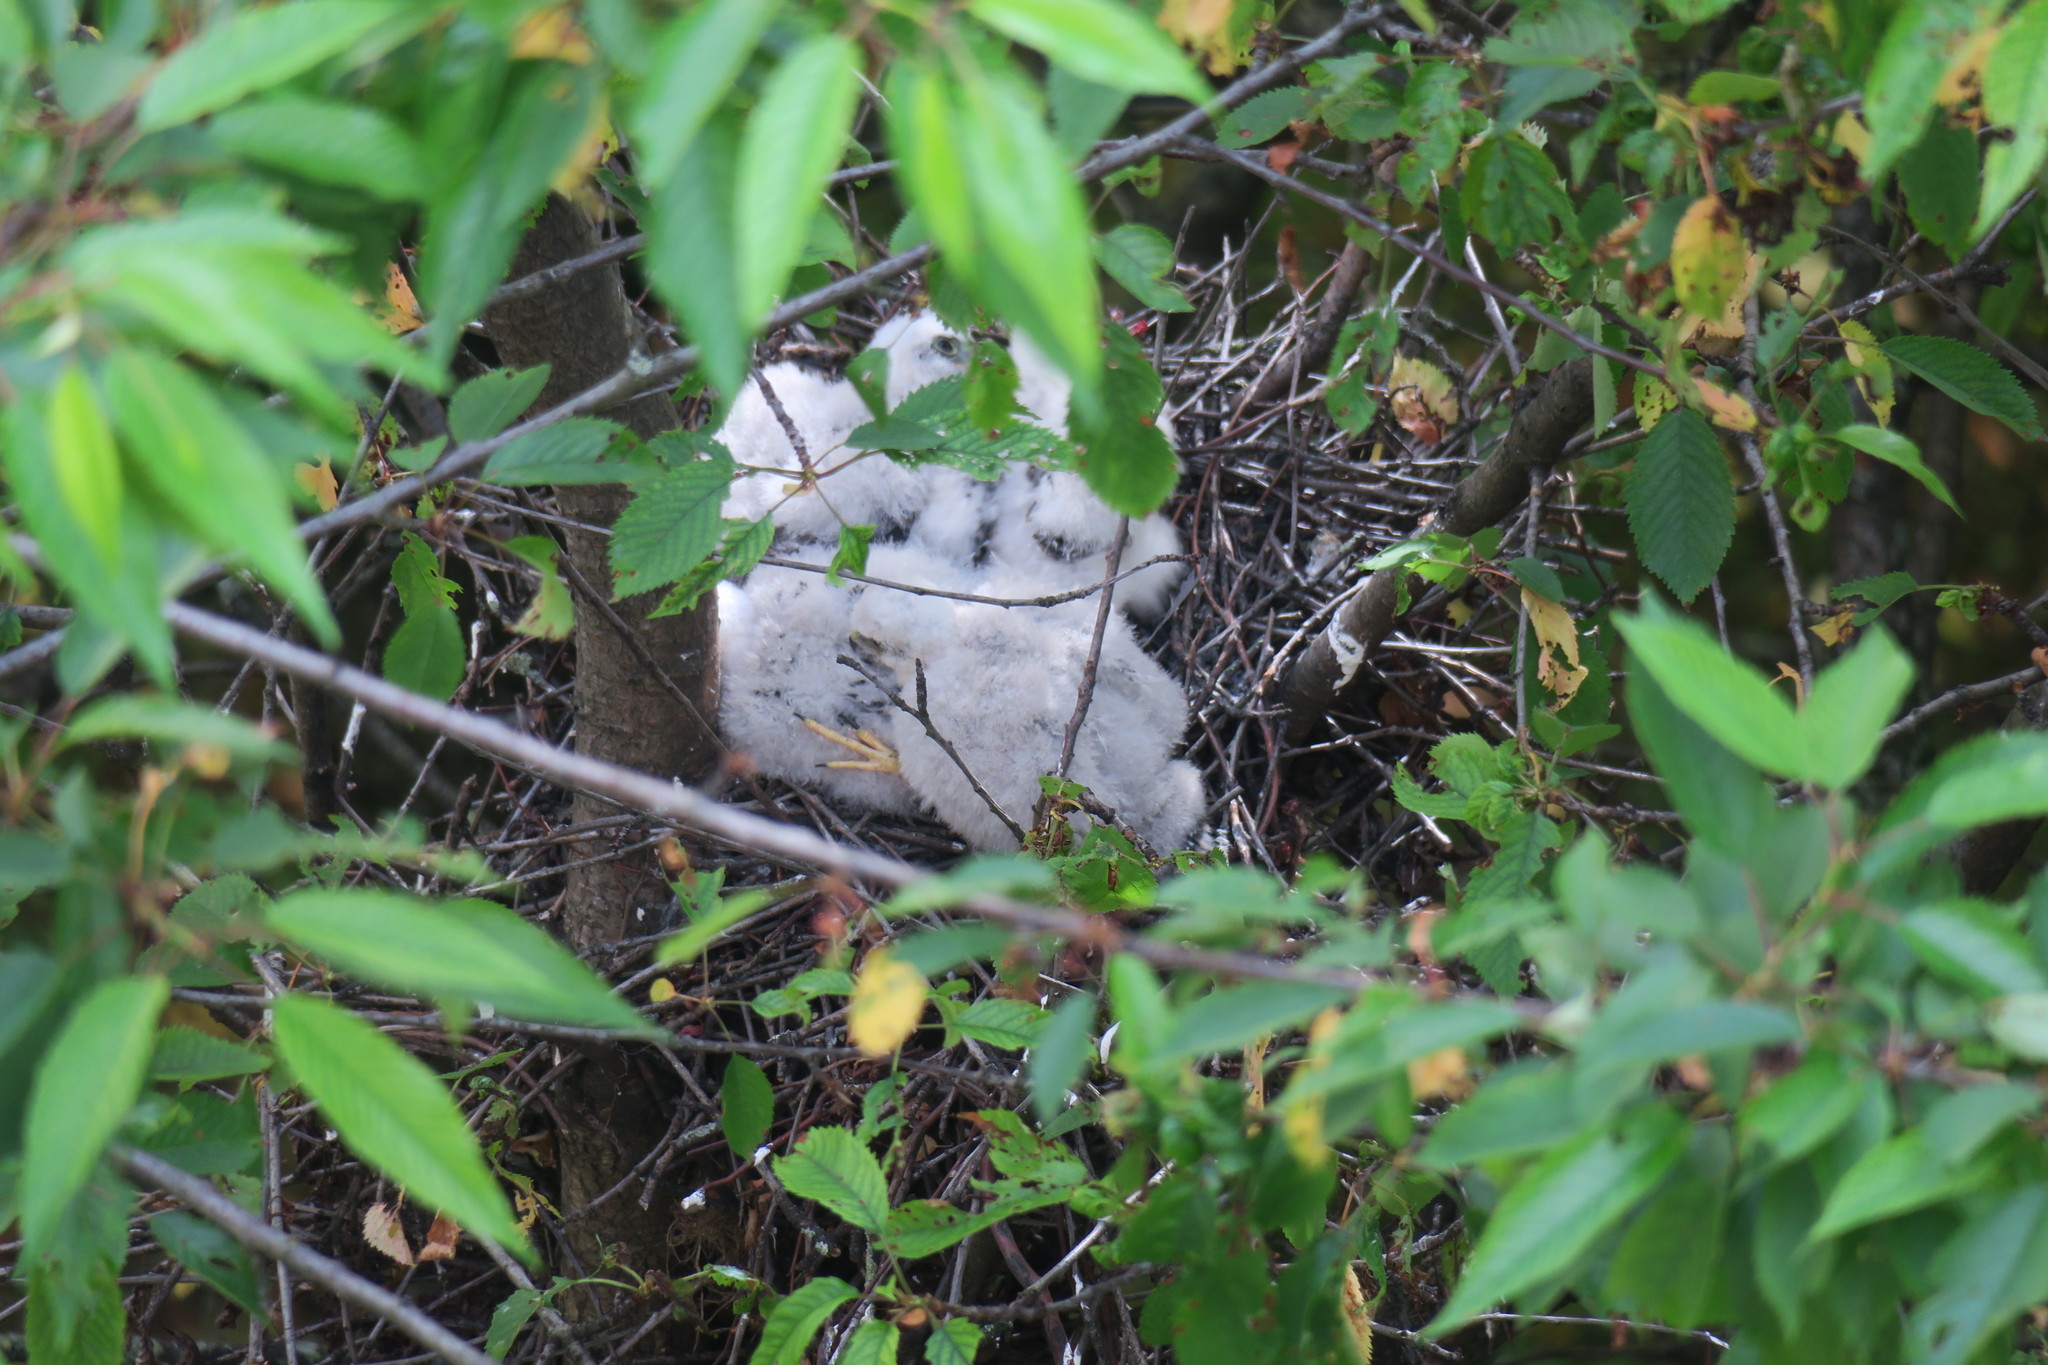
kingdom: Animalia
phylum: Chordata
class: Aves
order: Accipitriformes
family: Accipitridae
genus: Accipiter
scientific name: Accipiter nisus
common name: Eurasian sparrowhawk
